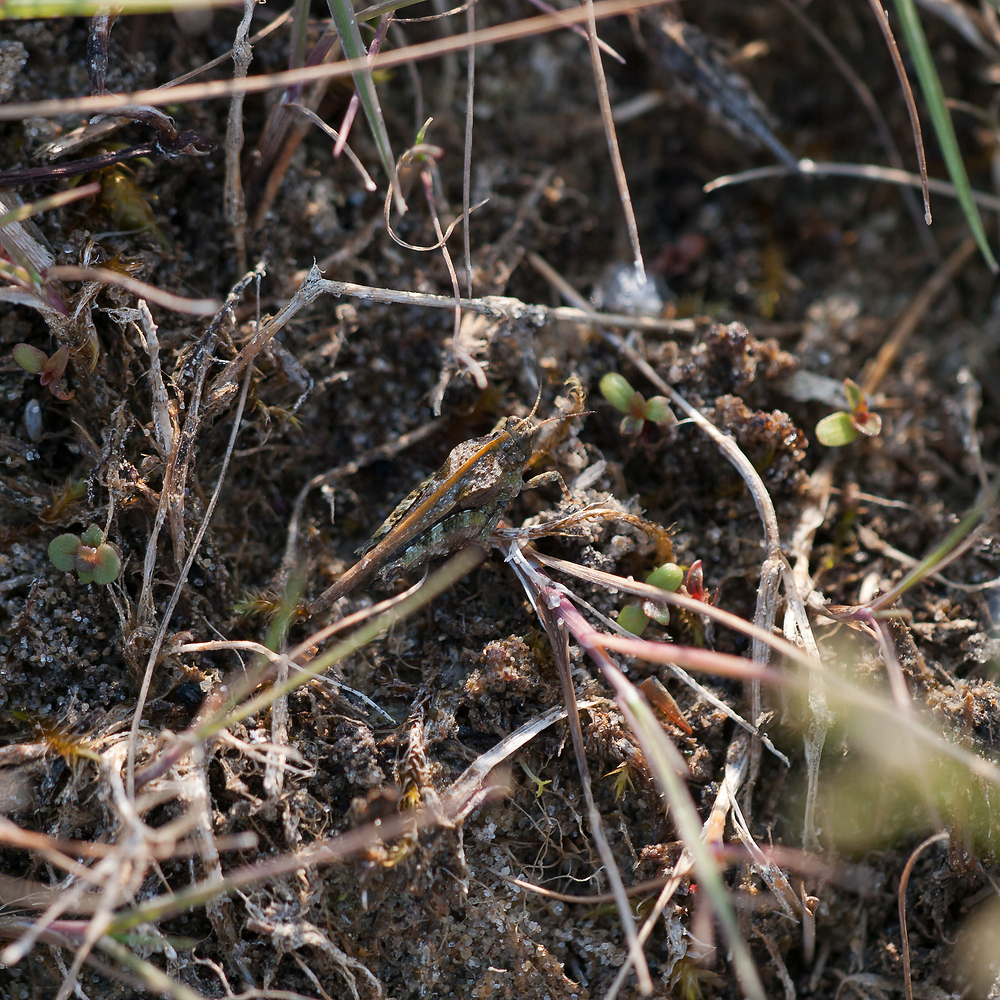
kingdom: Animalia
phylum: Arthropoda
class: Insecta
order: Orthoptera
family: Tetrigidae
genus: Tetrix
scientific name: Tetrix ceperoi
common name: Cepero's ground-hopper
